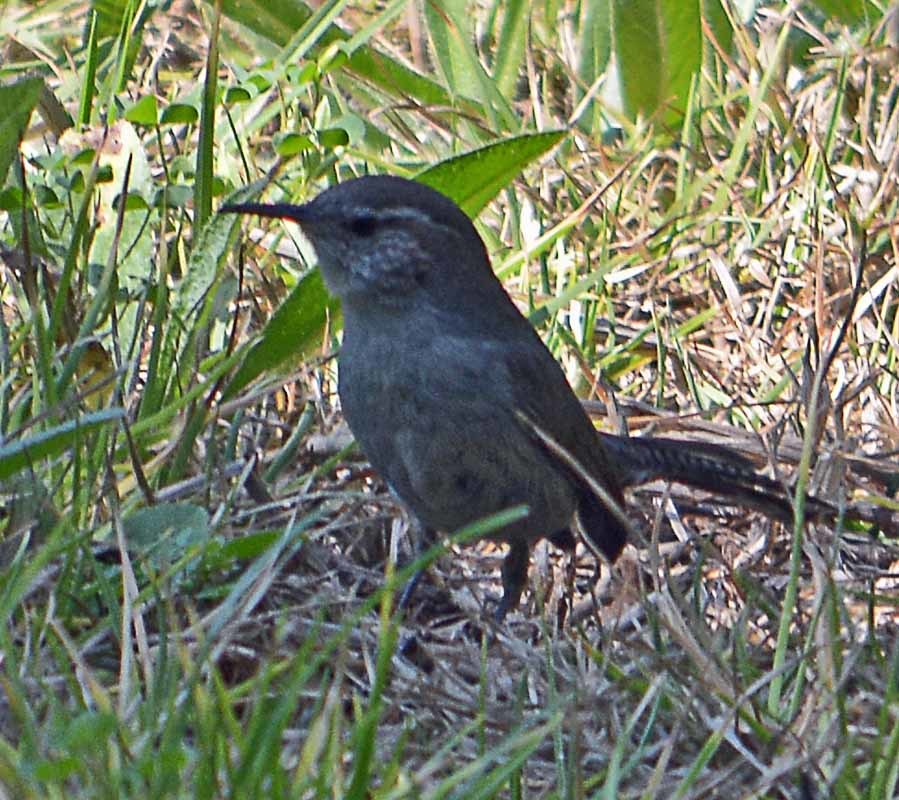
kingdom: Animalia
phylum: Chordata
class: Aves
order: Passeriformes
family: Troglodytidae
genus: Thryomanes
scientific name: Thryomanes bewickii
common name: Bewick's wren
